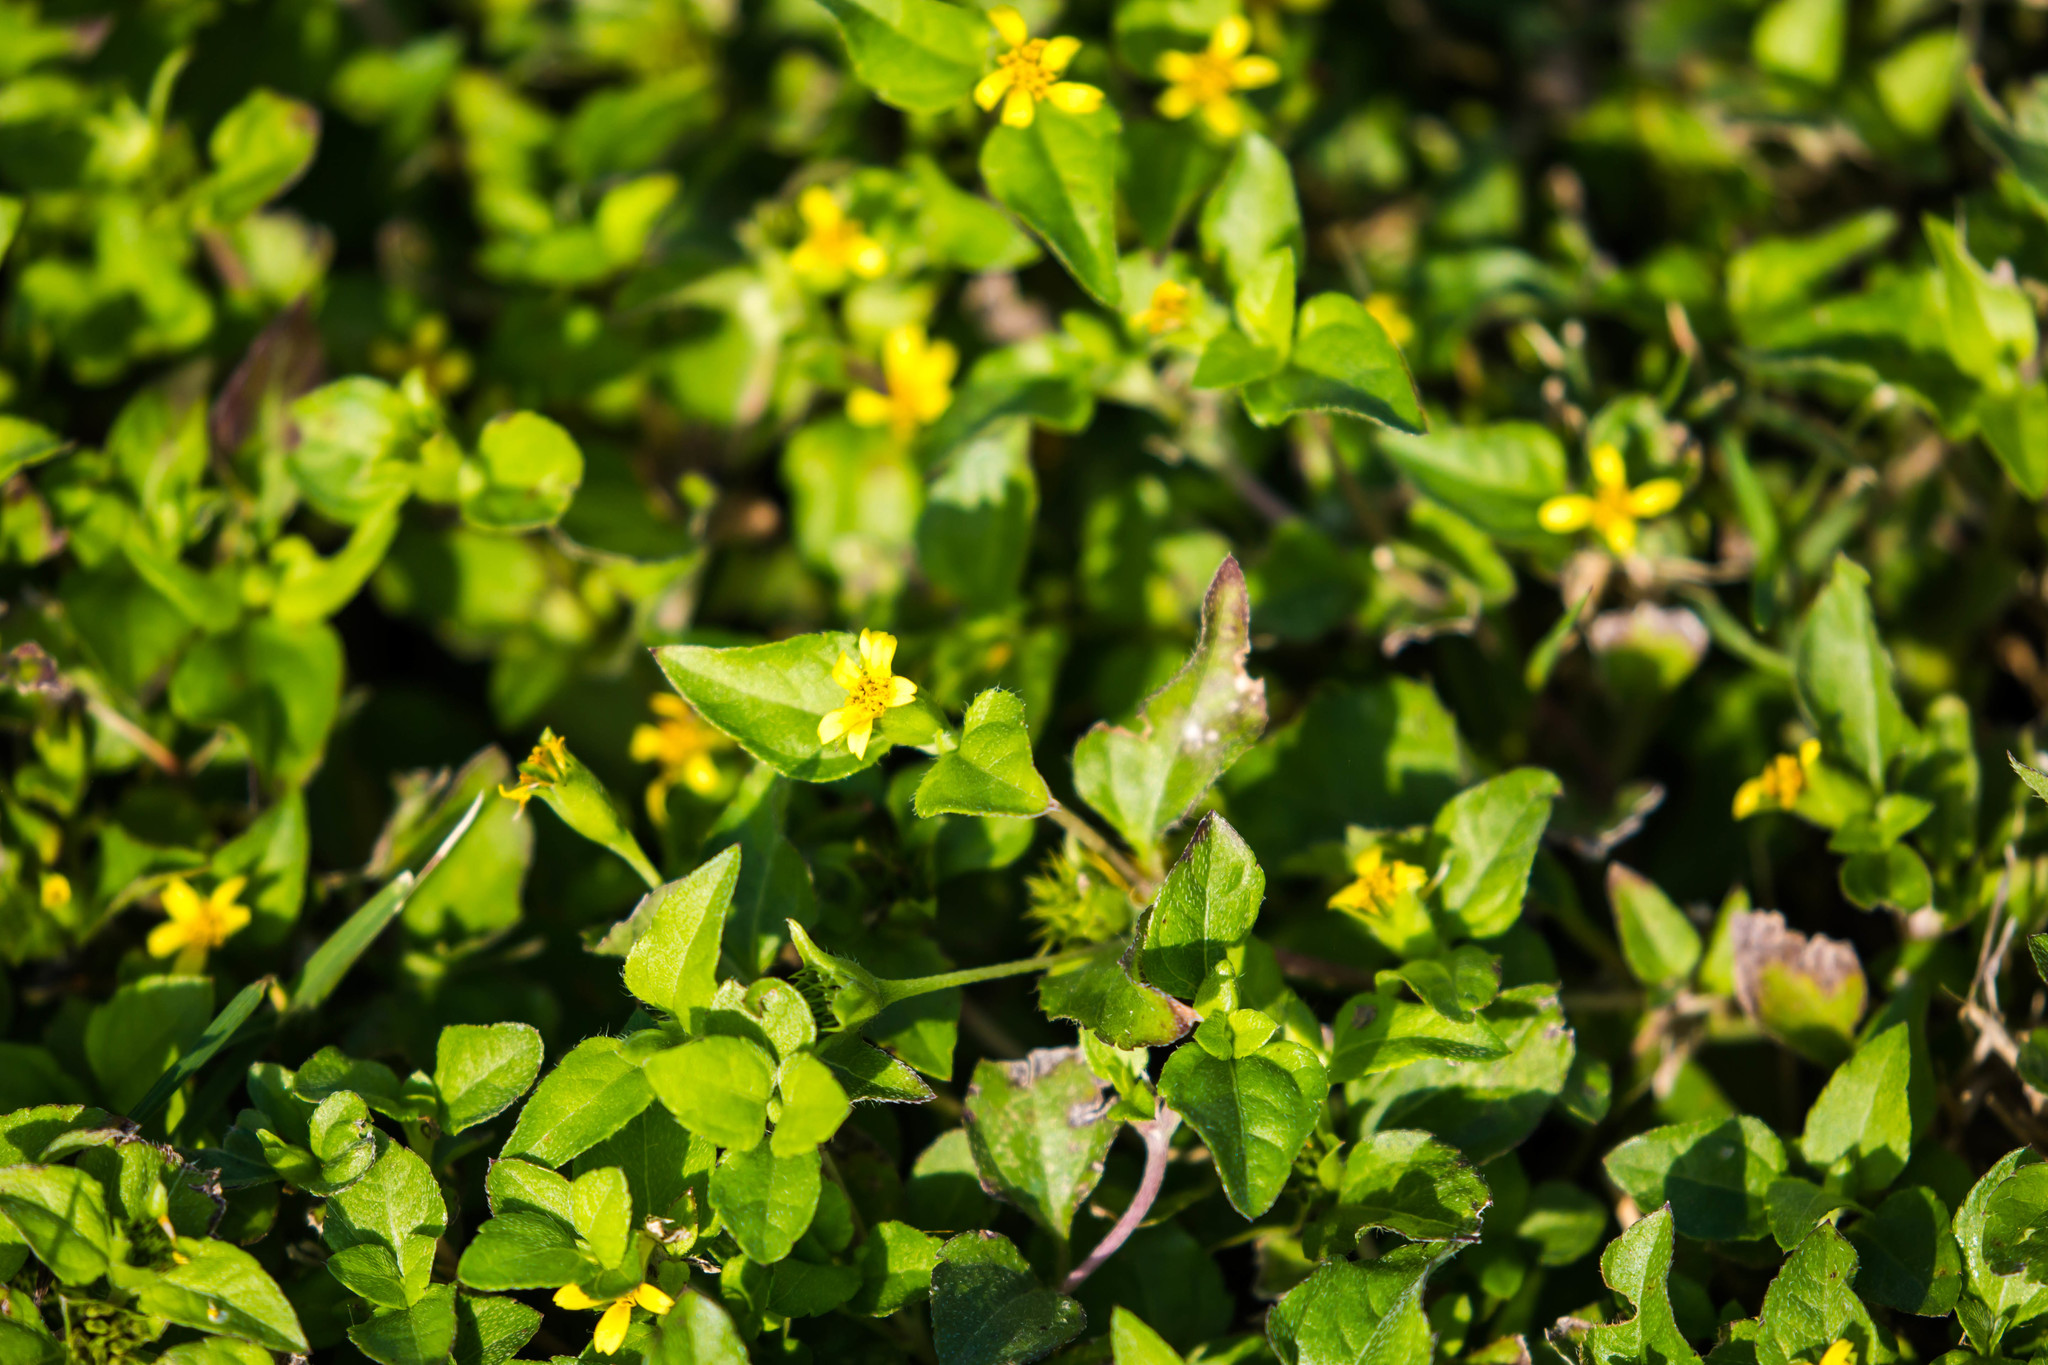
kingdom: Plantae
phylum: Tracheophyta
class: Magnoliopsida
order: Asterales
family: Asteraceae
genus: Calyptocarpus
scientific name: Calyptocarpus vialis
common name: Straggler daisy
